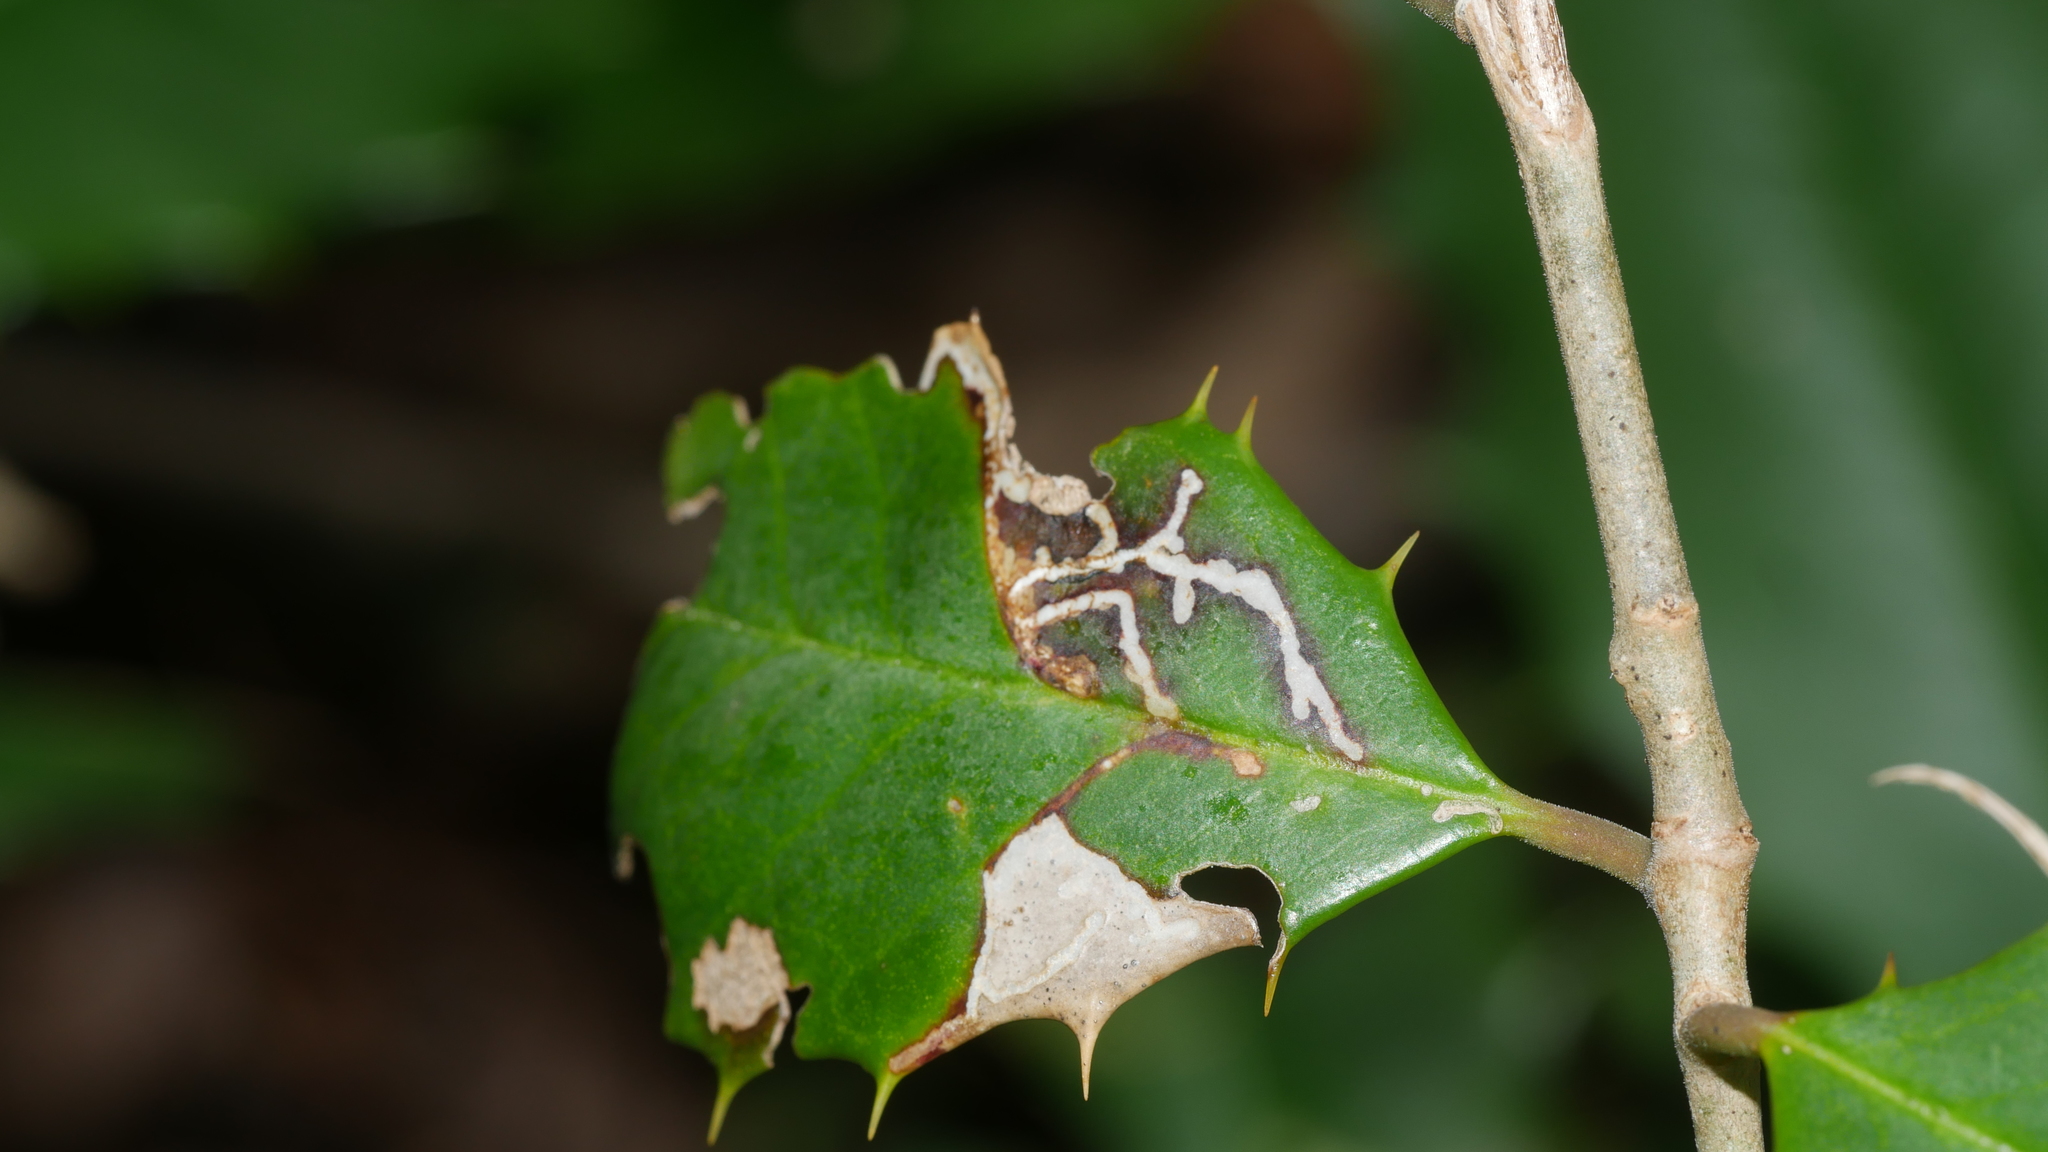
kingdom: Animalia
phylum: Arthropoda
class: Insecta
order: Lepidoptera
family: Tortricidae
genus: Rhopobota
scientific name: Rhopobota
